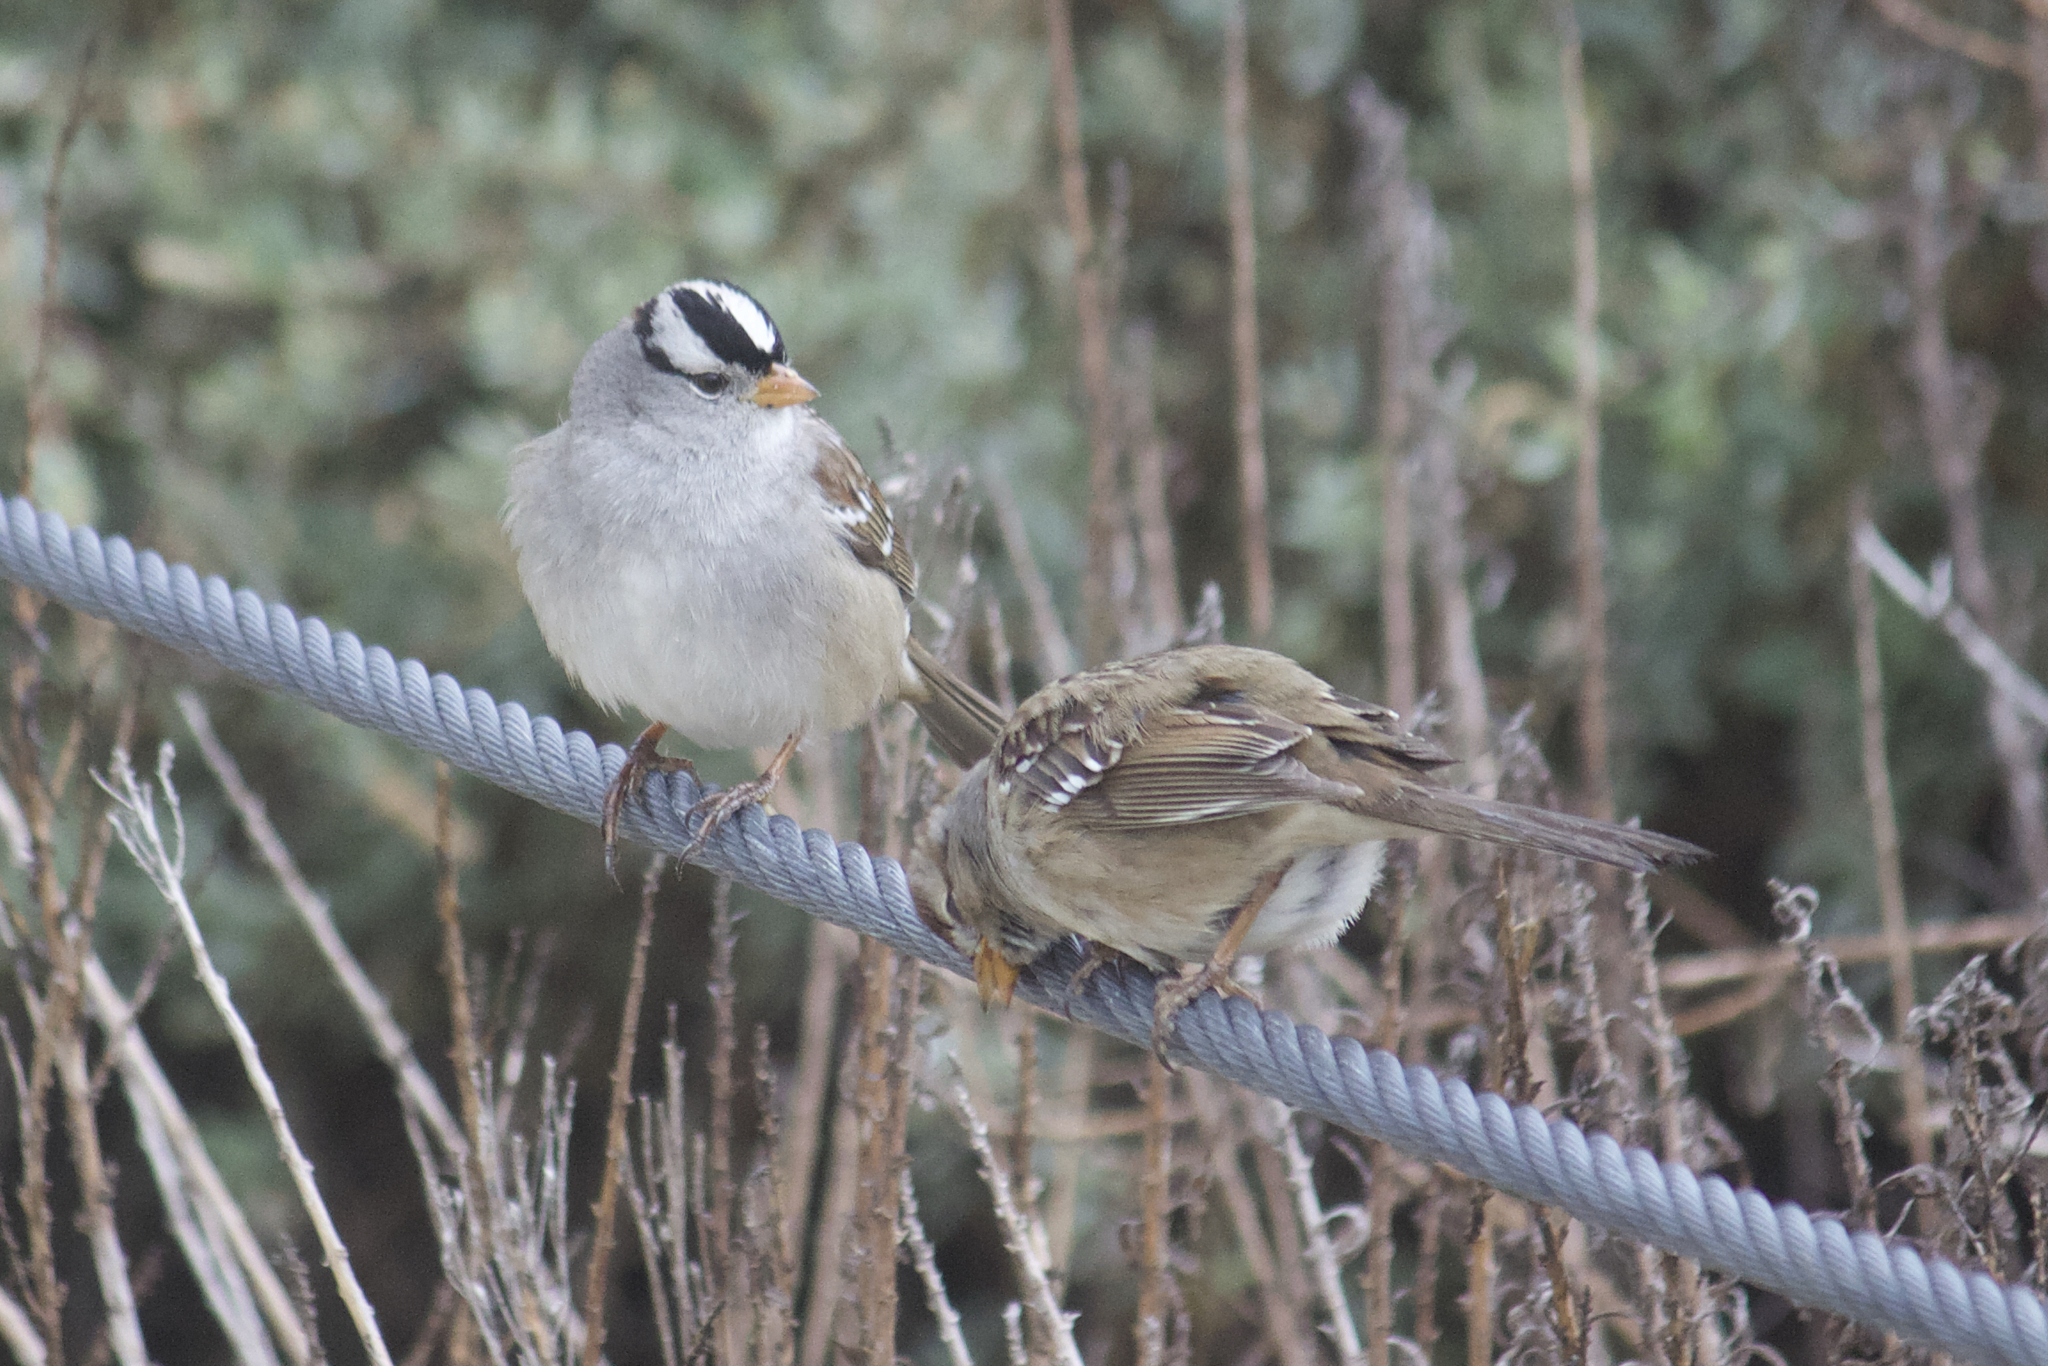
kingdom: Animalia
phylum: Chordata
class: Aves
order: Passeriformes
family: Passerellidae
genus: Zonotrichia
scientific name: Zonotrichia leucophrys
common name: White-crowned sparrow
